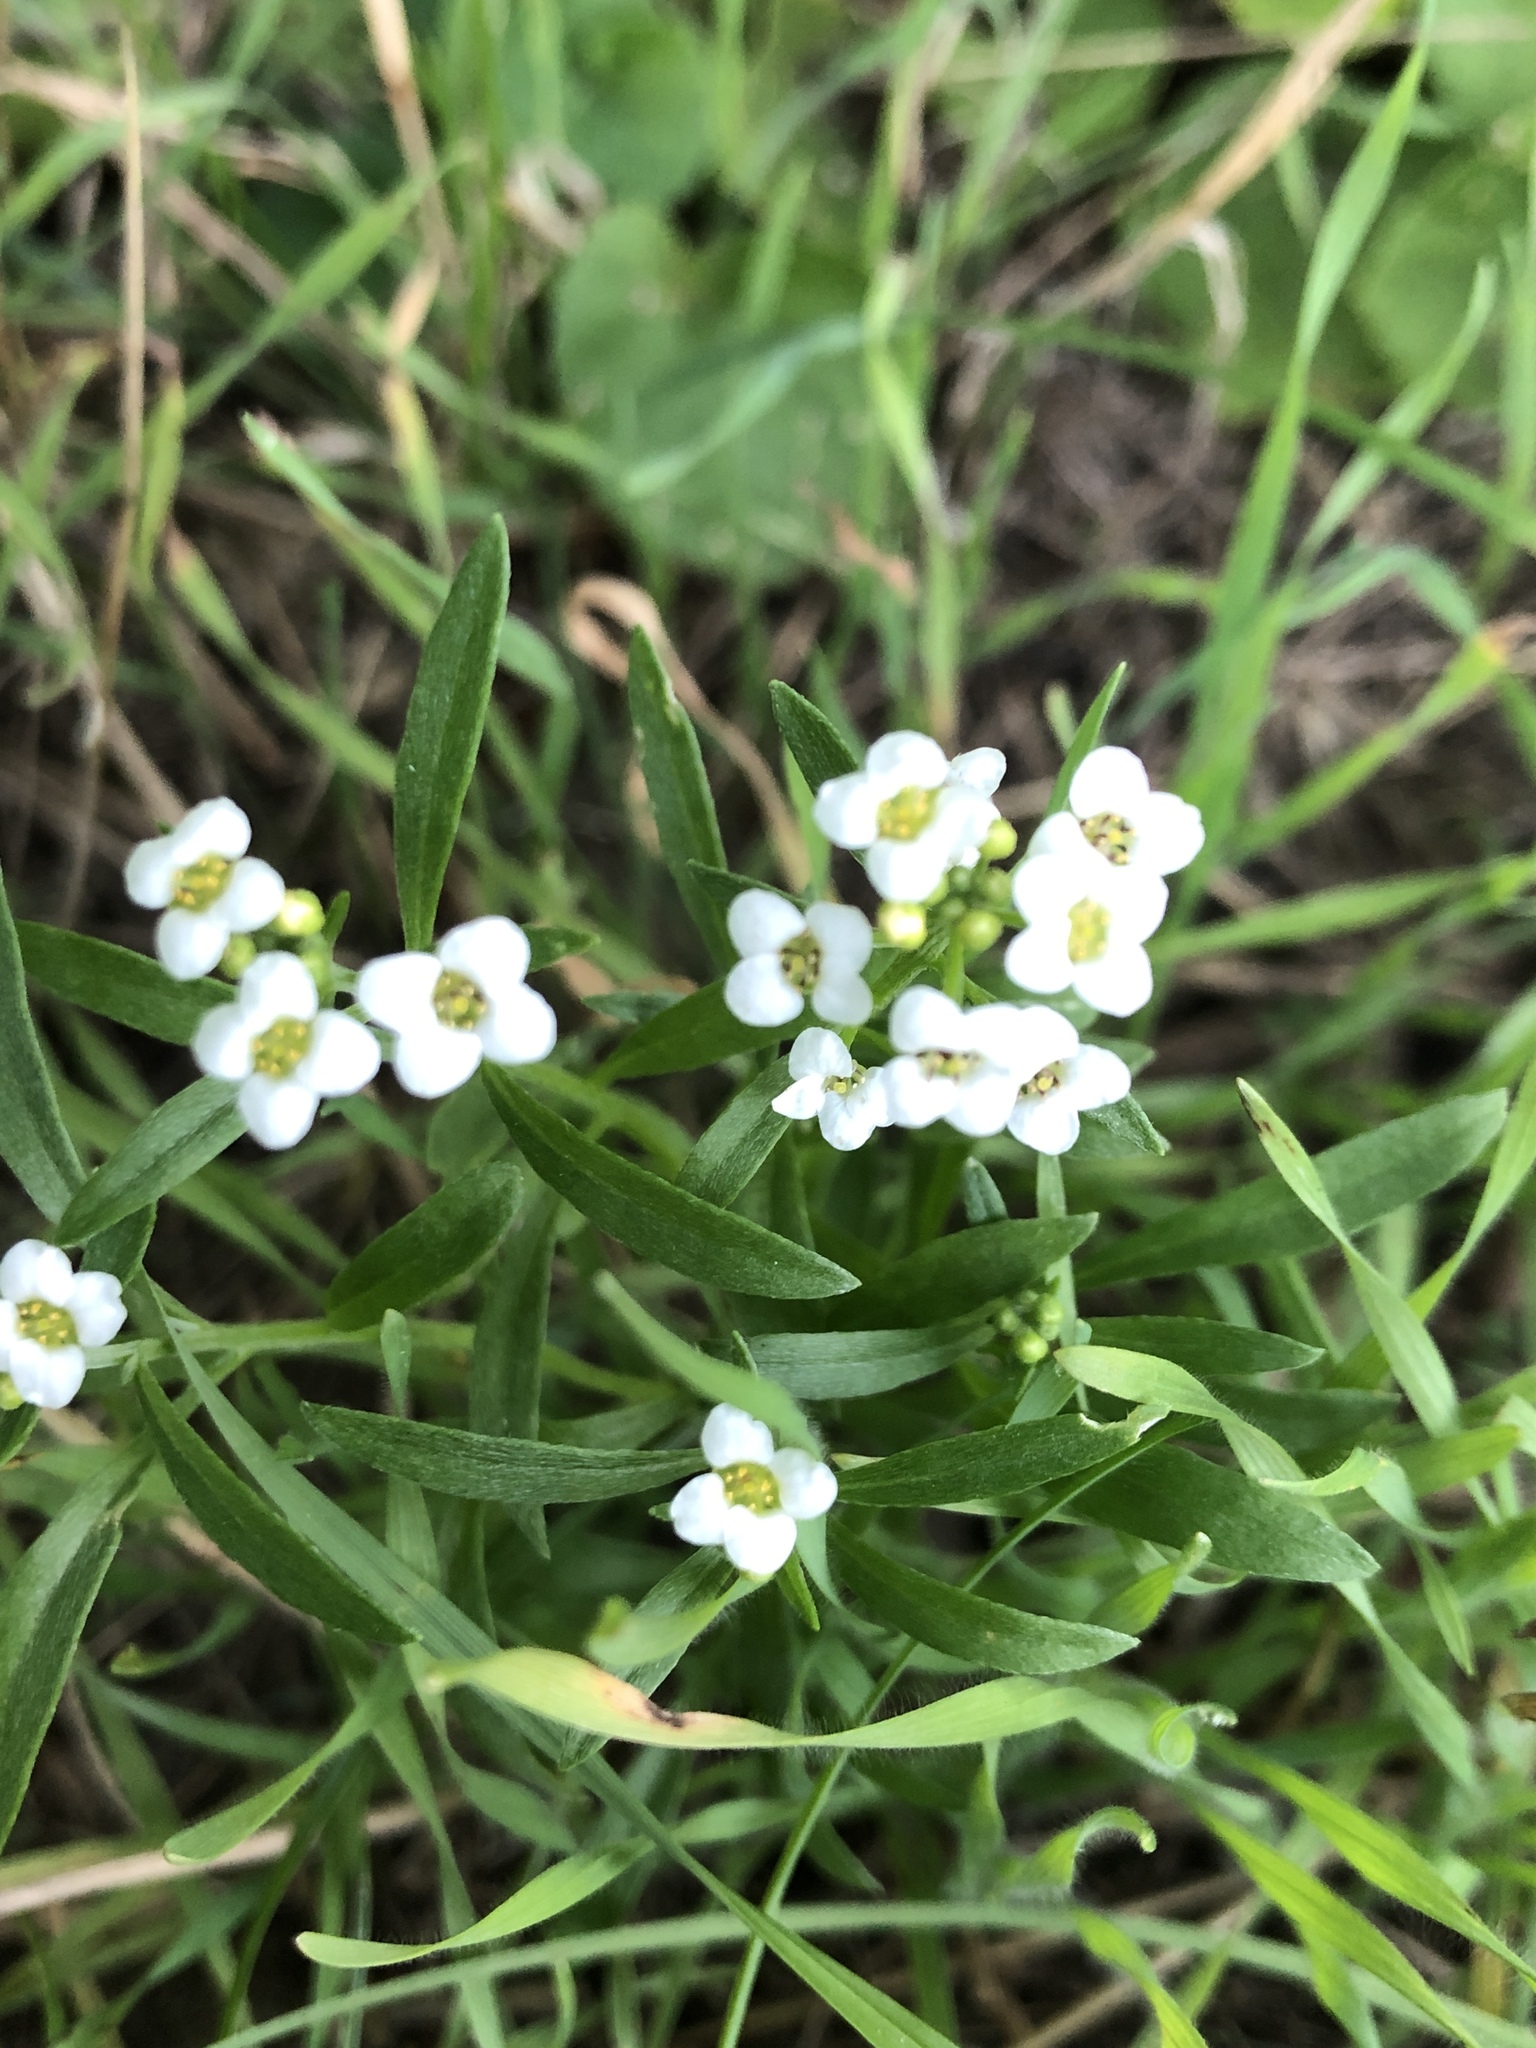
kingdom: Plantae
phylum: Tracheophyta
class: Magnoliopsida
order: Brassicales
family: Brassicaceae
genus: Lobularia
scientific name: Lobularia maritima
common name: Sweet alison
